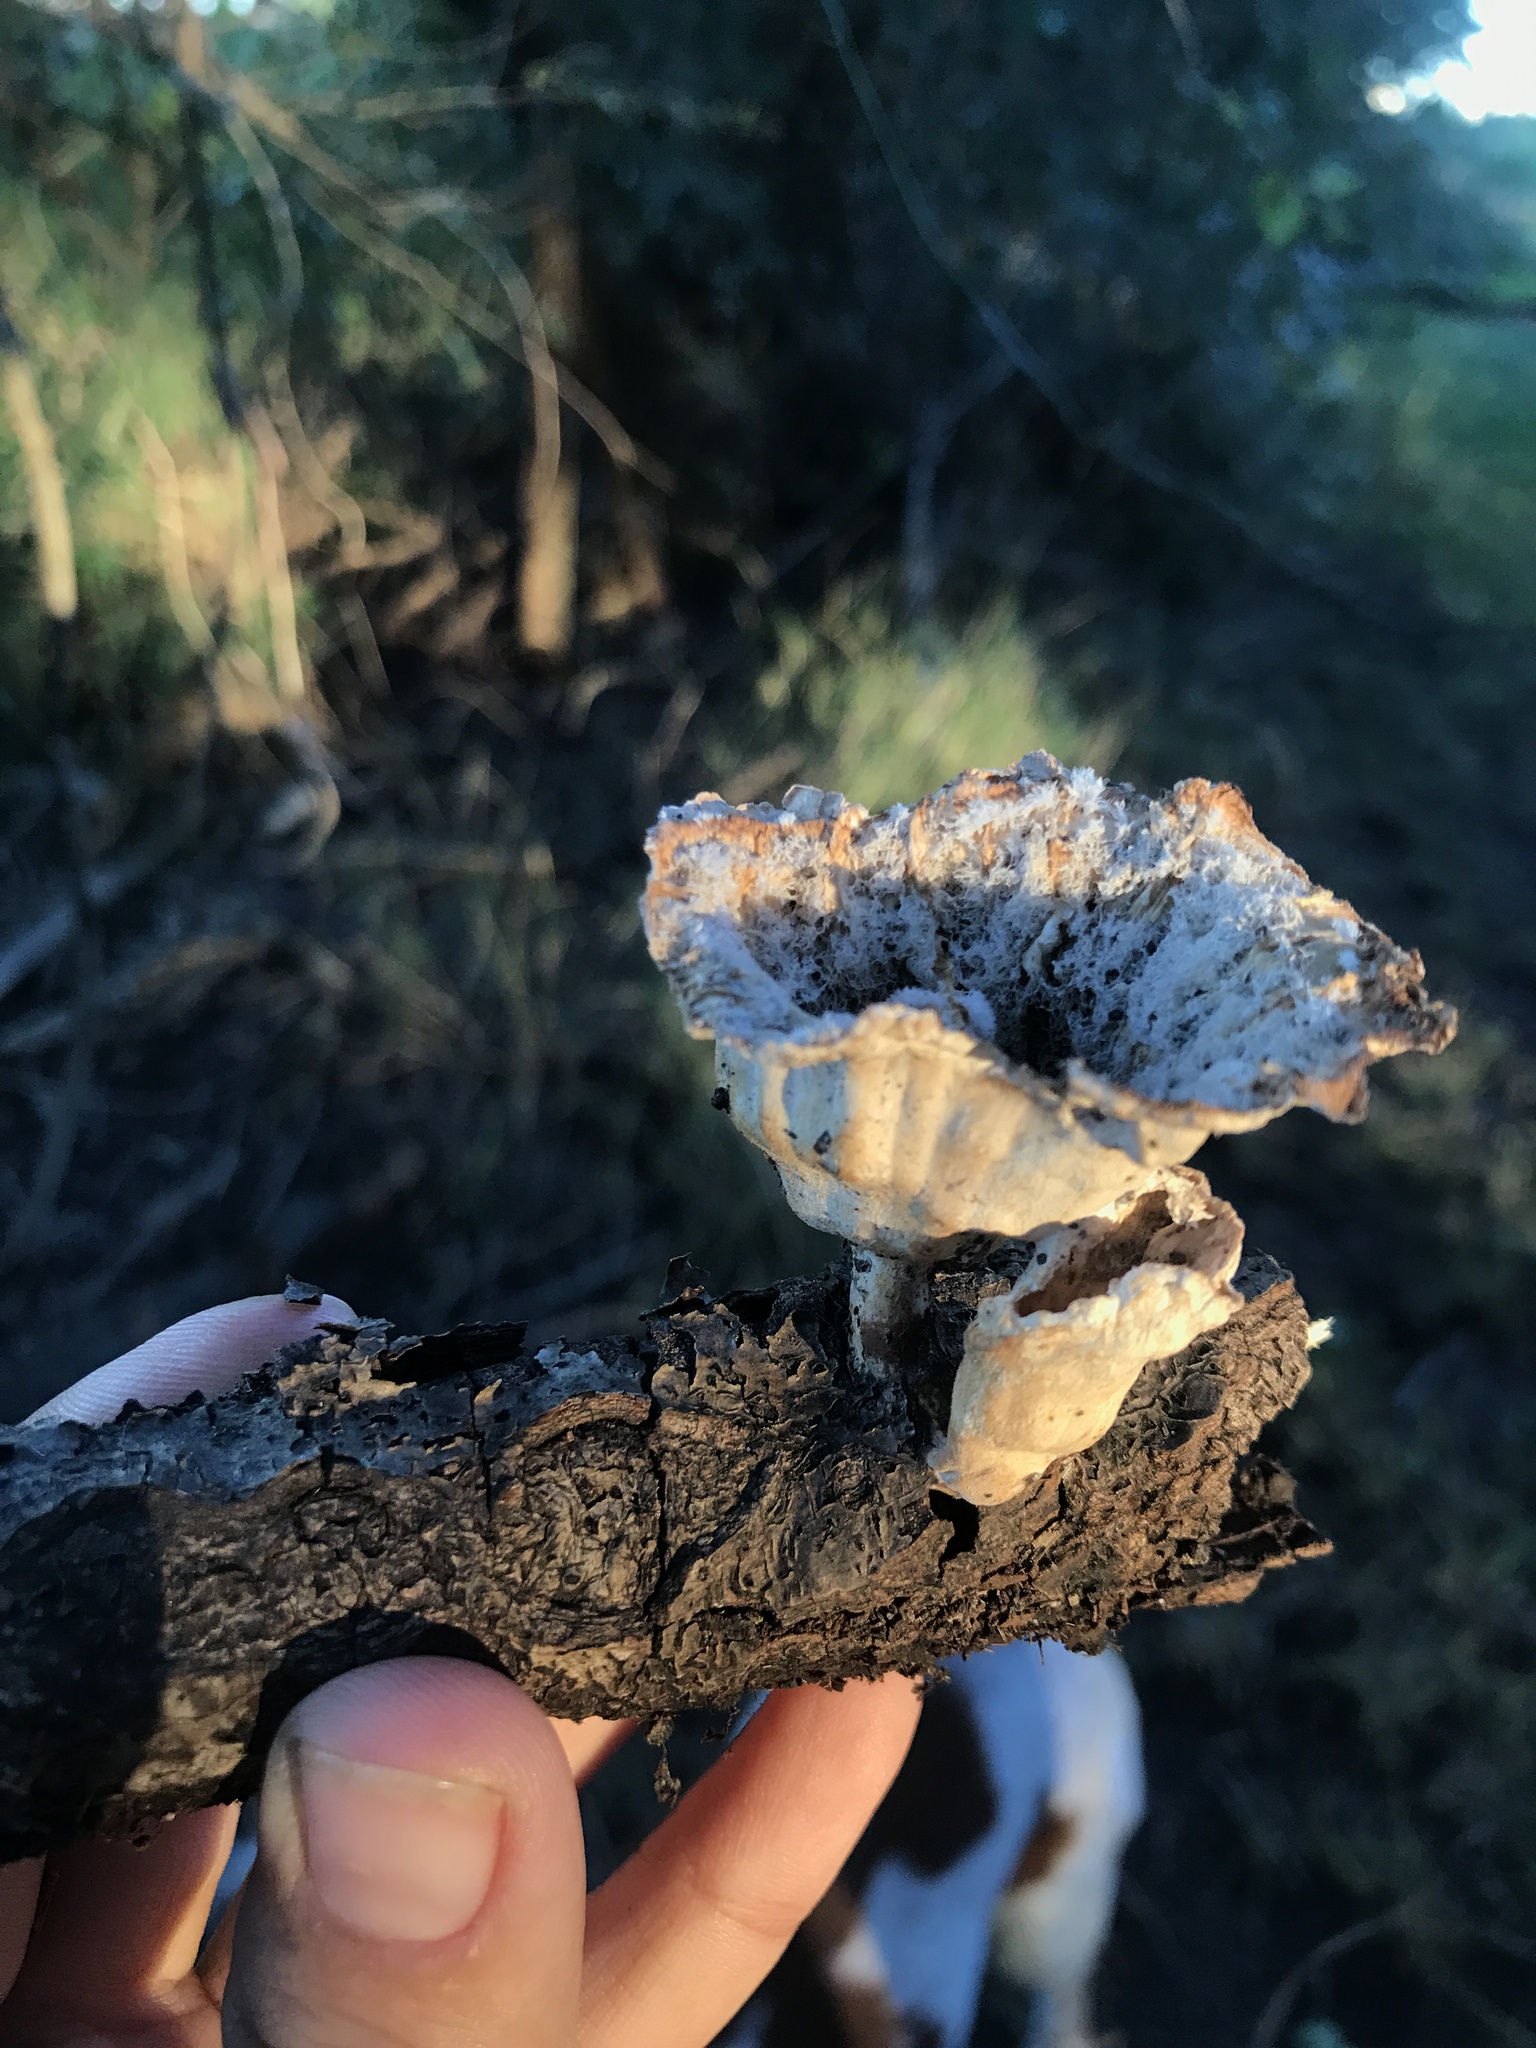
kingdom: Fungi
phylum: Basidiomycota
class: Agaricomycetes
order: Polyporales
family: Panaceae
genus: Cymatoderma
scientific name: Cymatoderma caperatum
